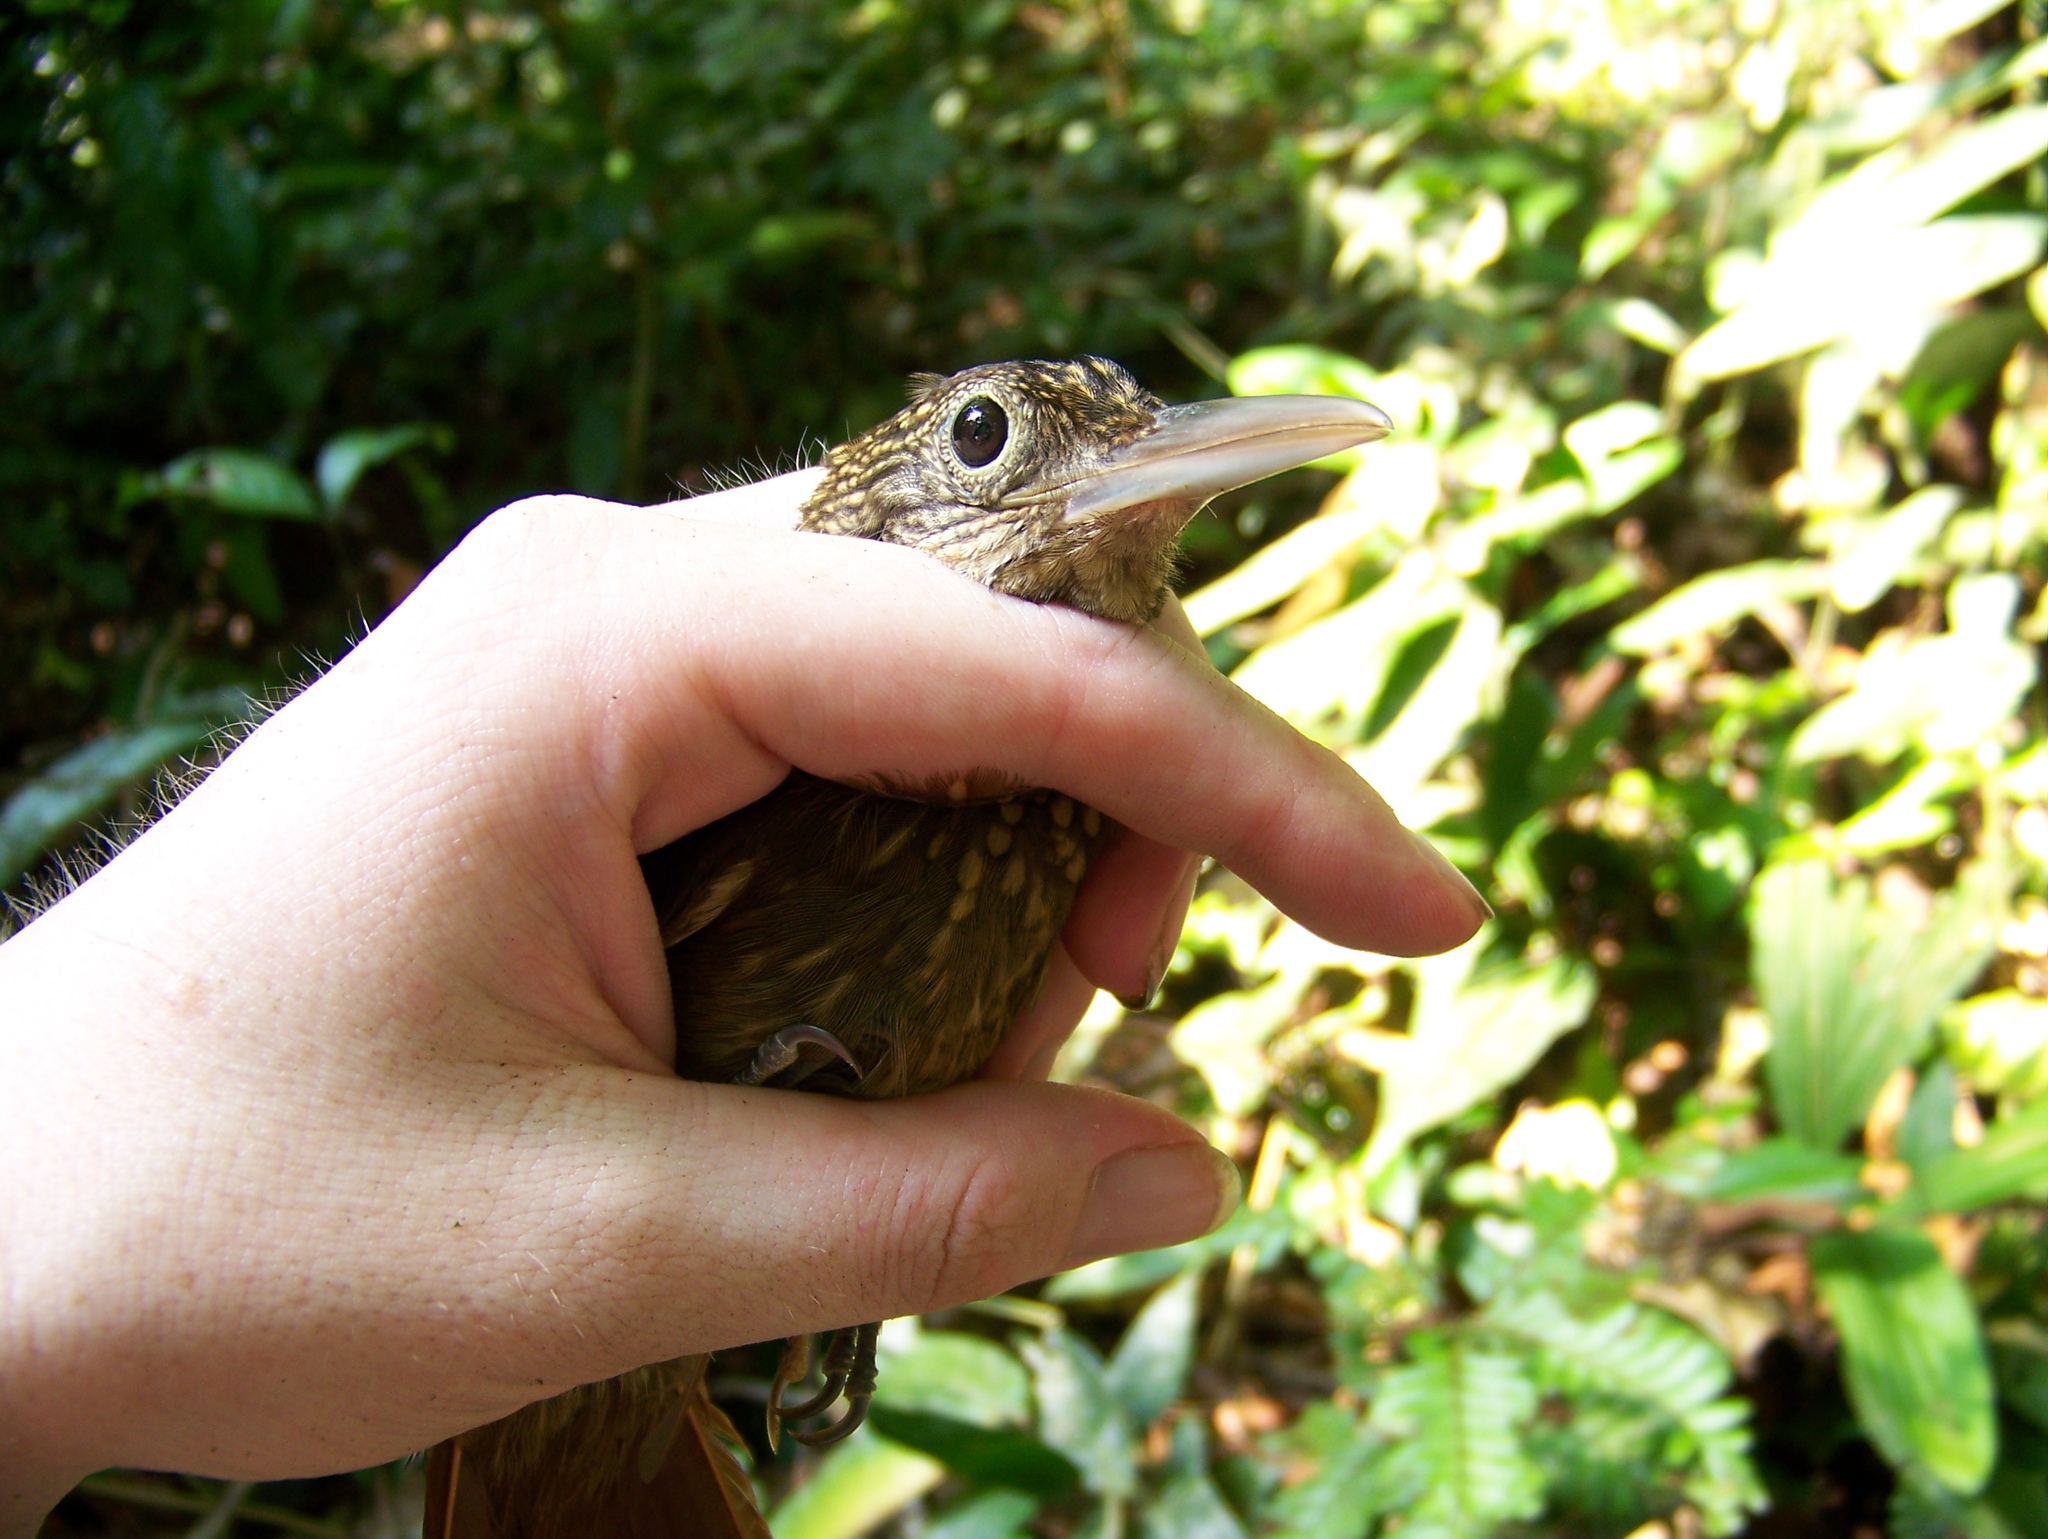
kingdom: Animalia
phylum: Chordata
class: Aves
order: Passeriformes
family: Furnariidae
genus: Xiphorhynchus
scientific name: Xiphorhynchus guttatus
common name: Buff-throated woodcreeper
